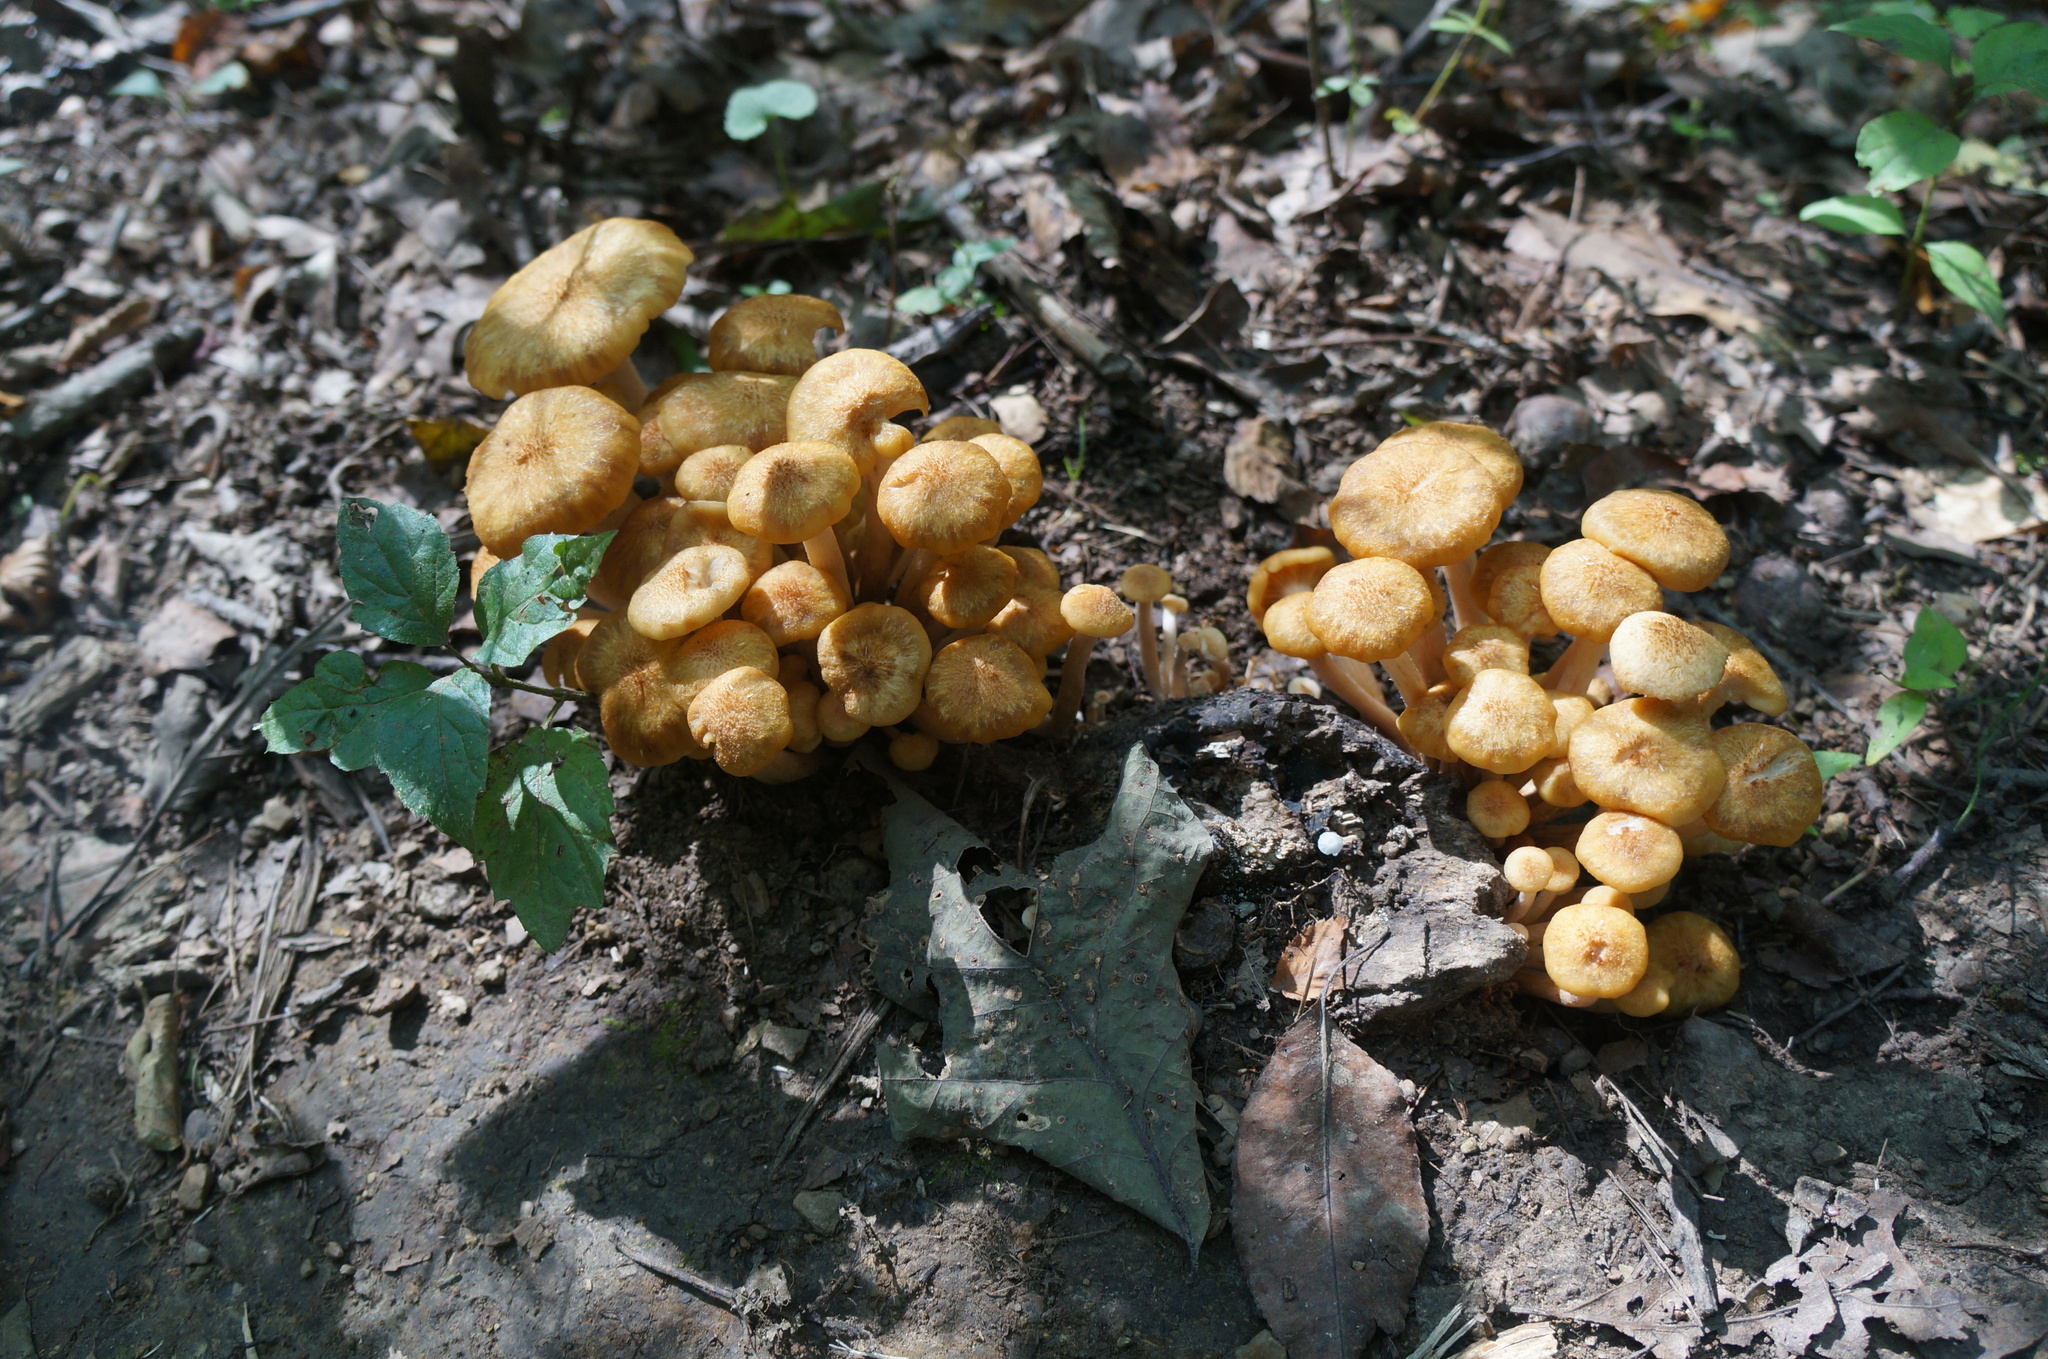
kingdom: Fungi
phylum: Basidiomycota
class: Agaricomycetes
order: Agaricales
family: Physalacriaceae
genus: Desarmillaria
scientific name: Desarmillaria caespitosa
